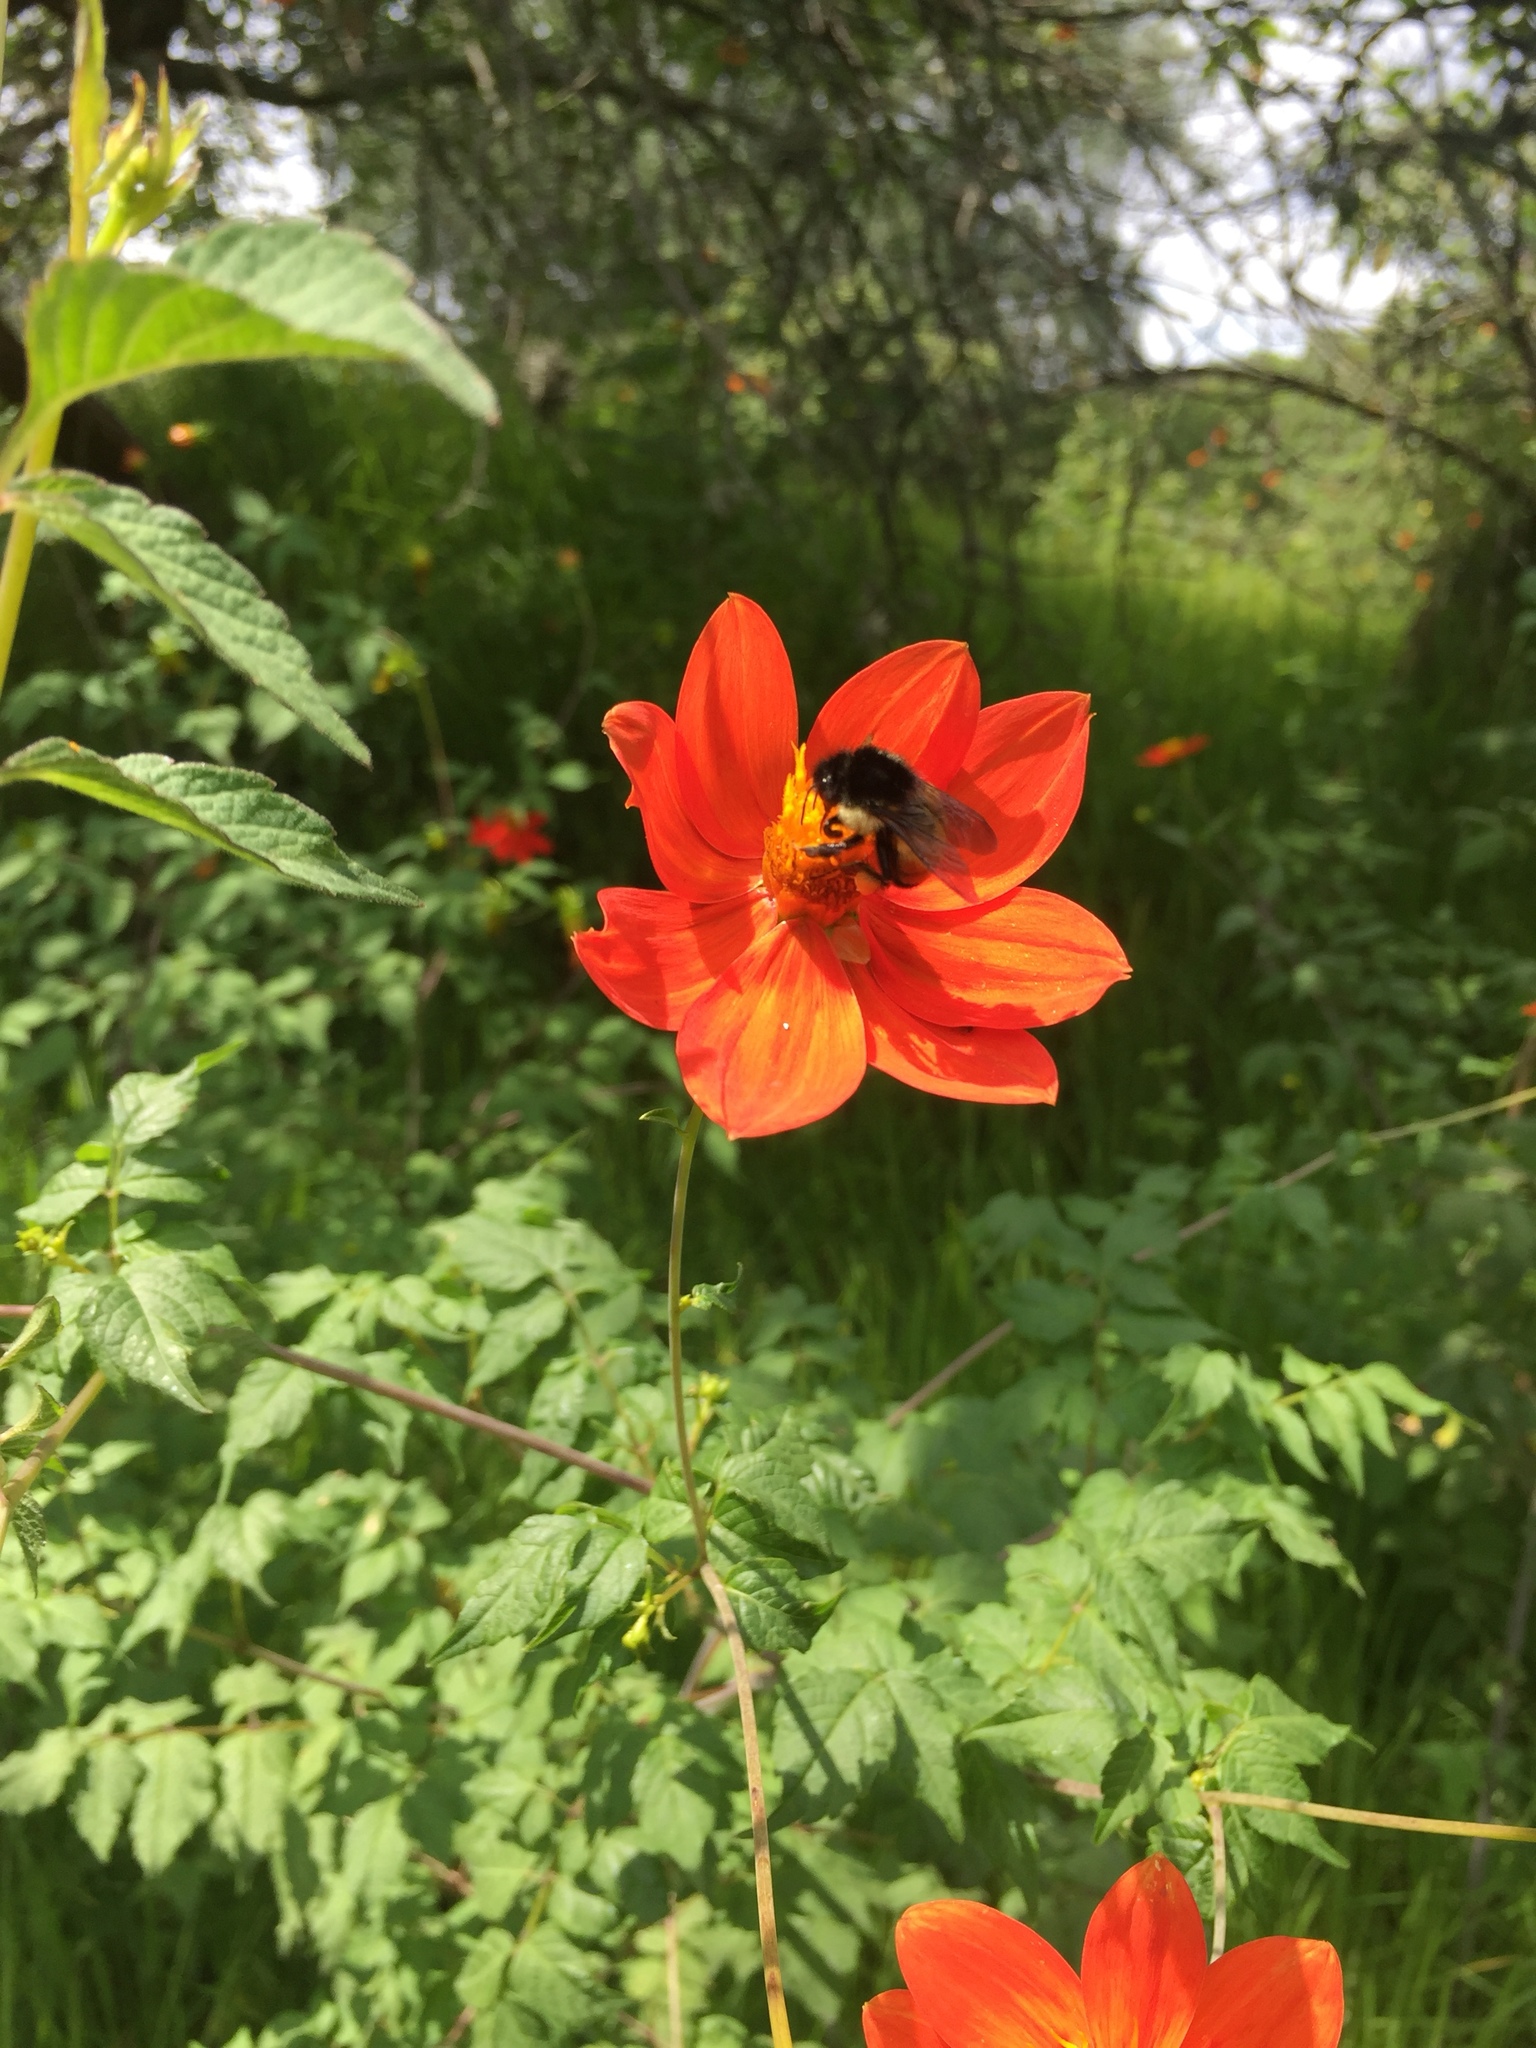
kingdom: Animalia
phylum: Arthropoda
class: Insecta
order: Hymenoptera
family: Apidae
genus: Bombus
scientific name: Bombus ephippiatus
